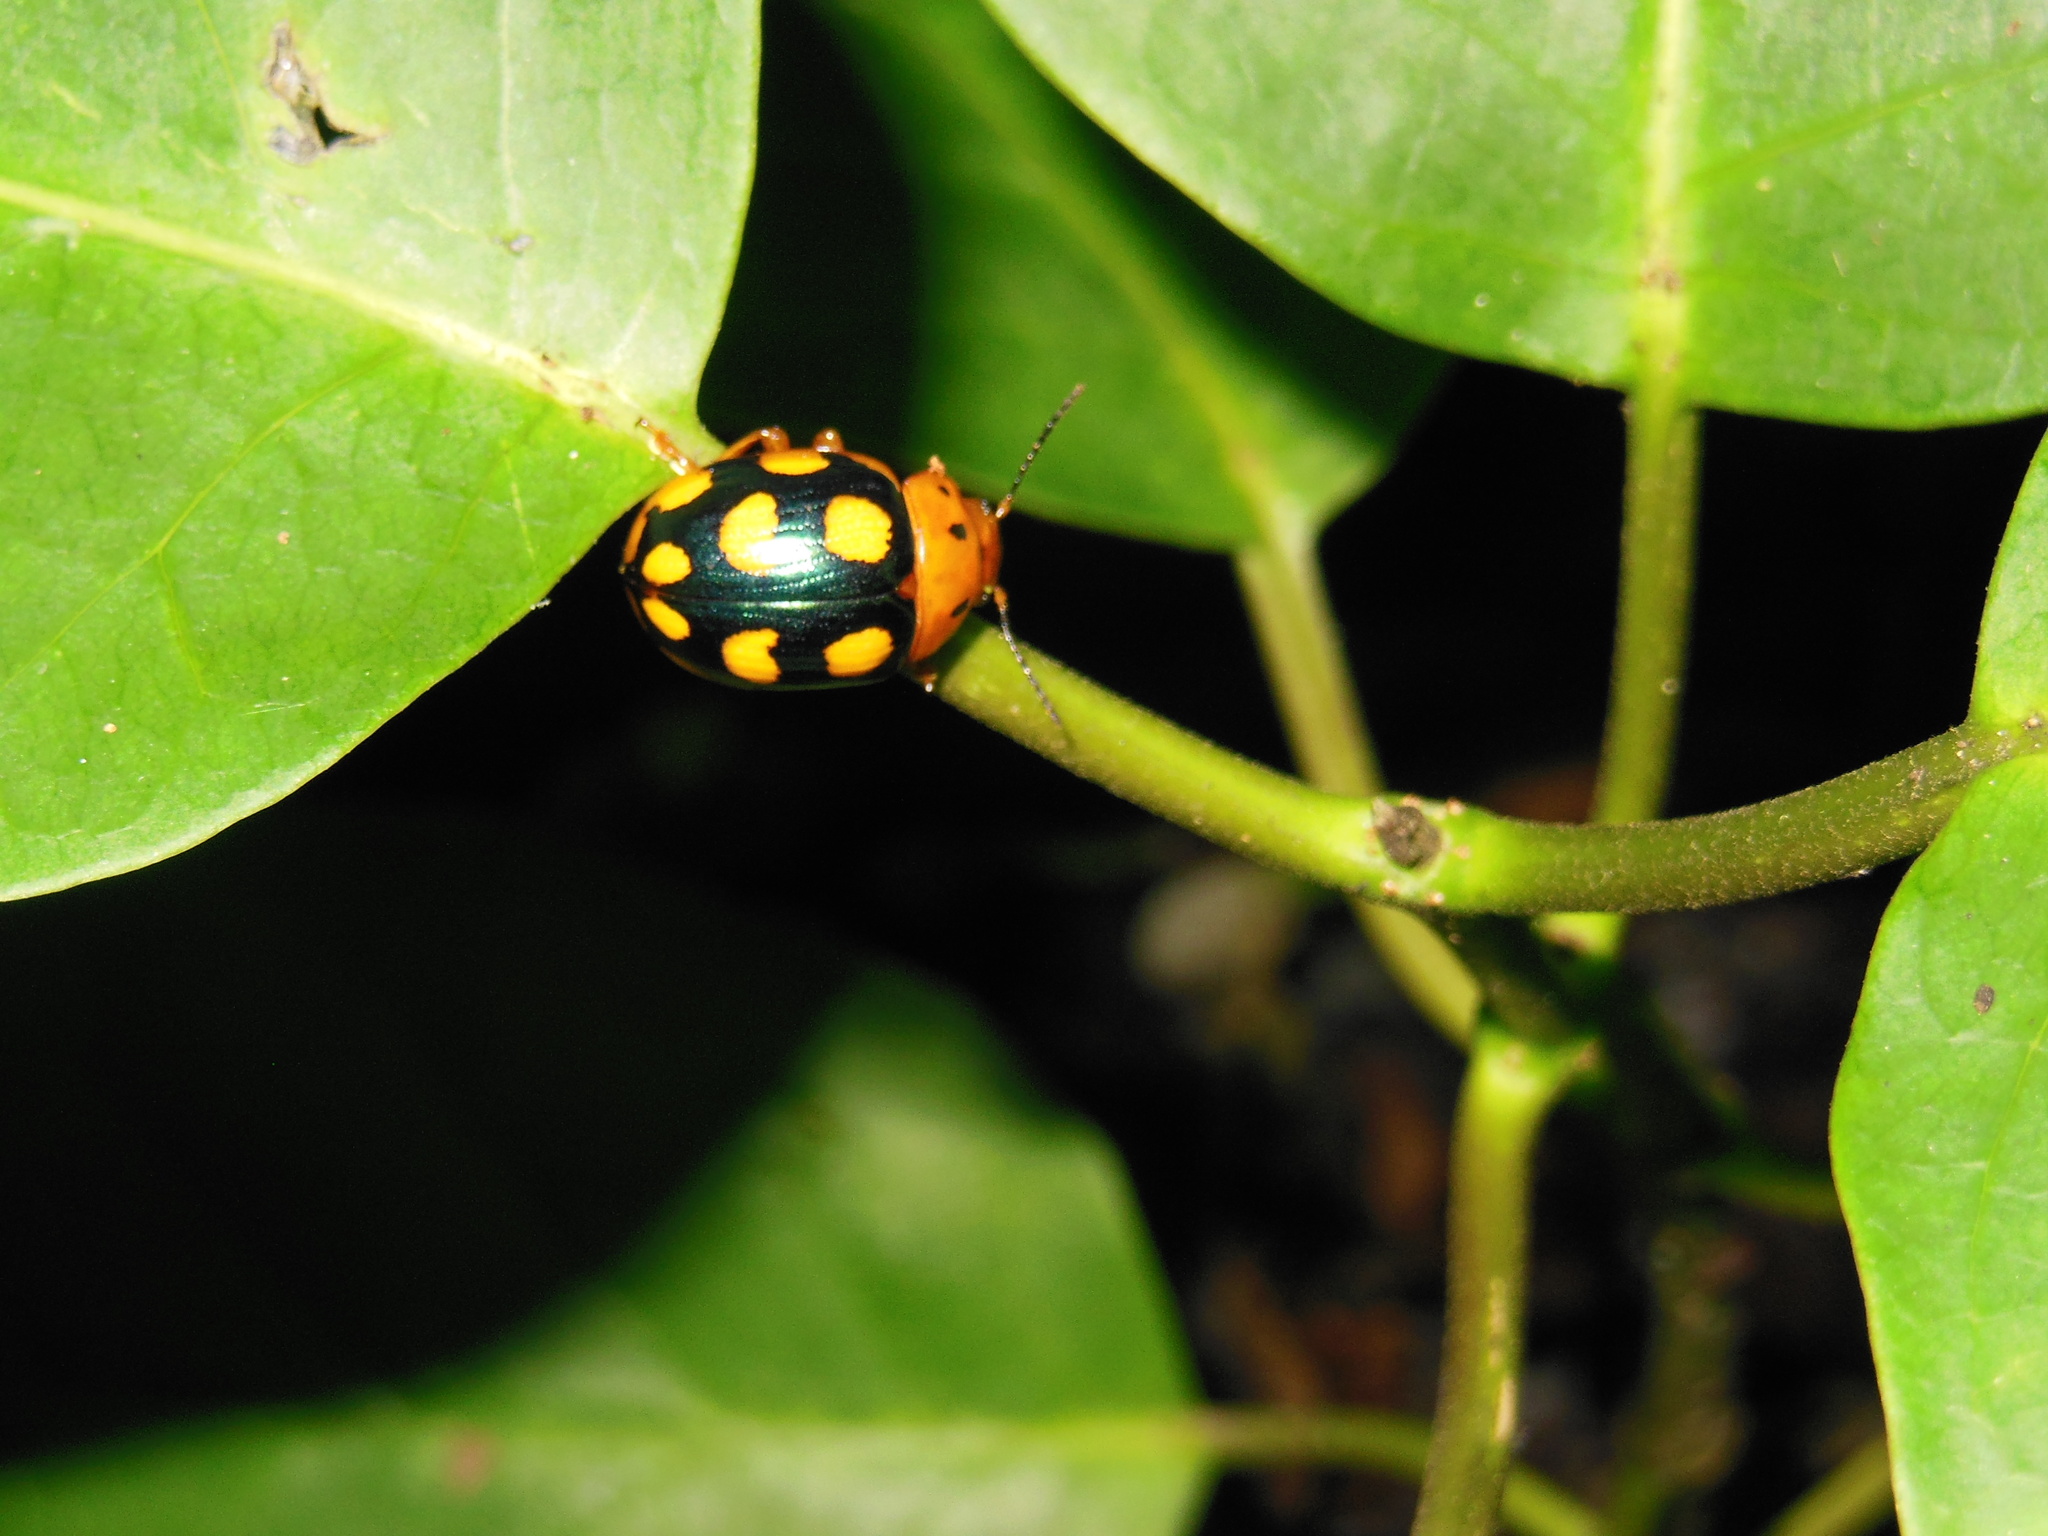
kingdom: Animalia
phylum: Arthropoda
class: Insecta
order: Coleoptera
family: Chrysomelidae
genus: Platyphora
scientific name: Platyphora
